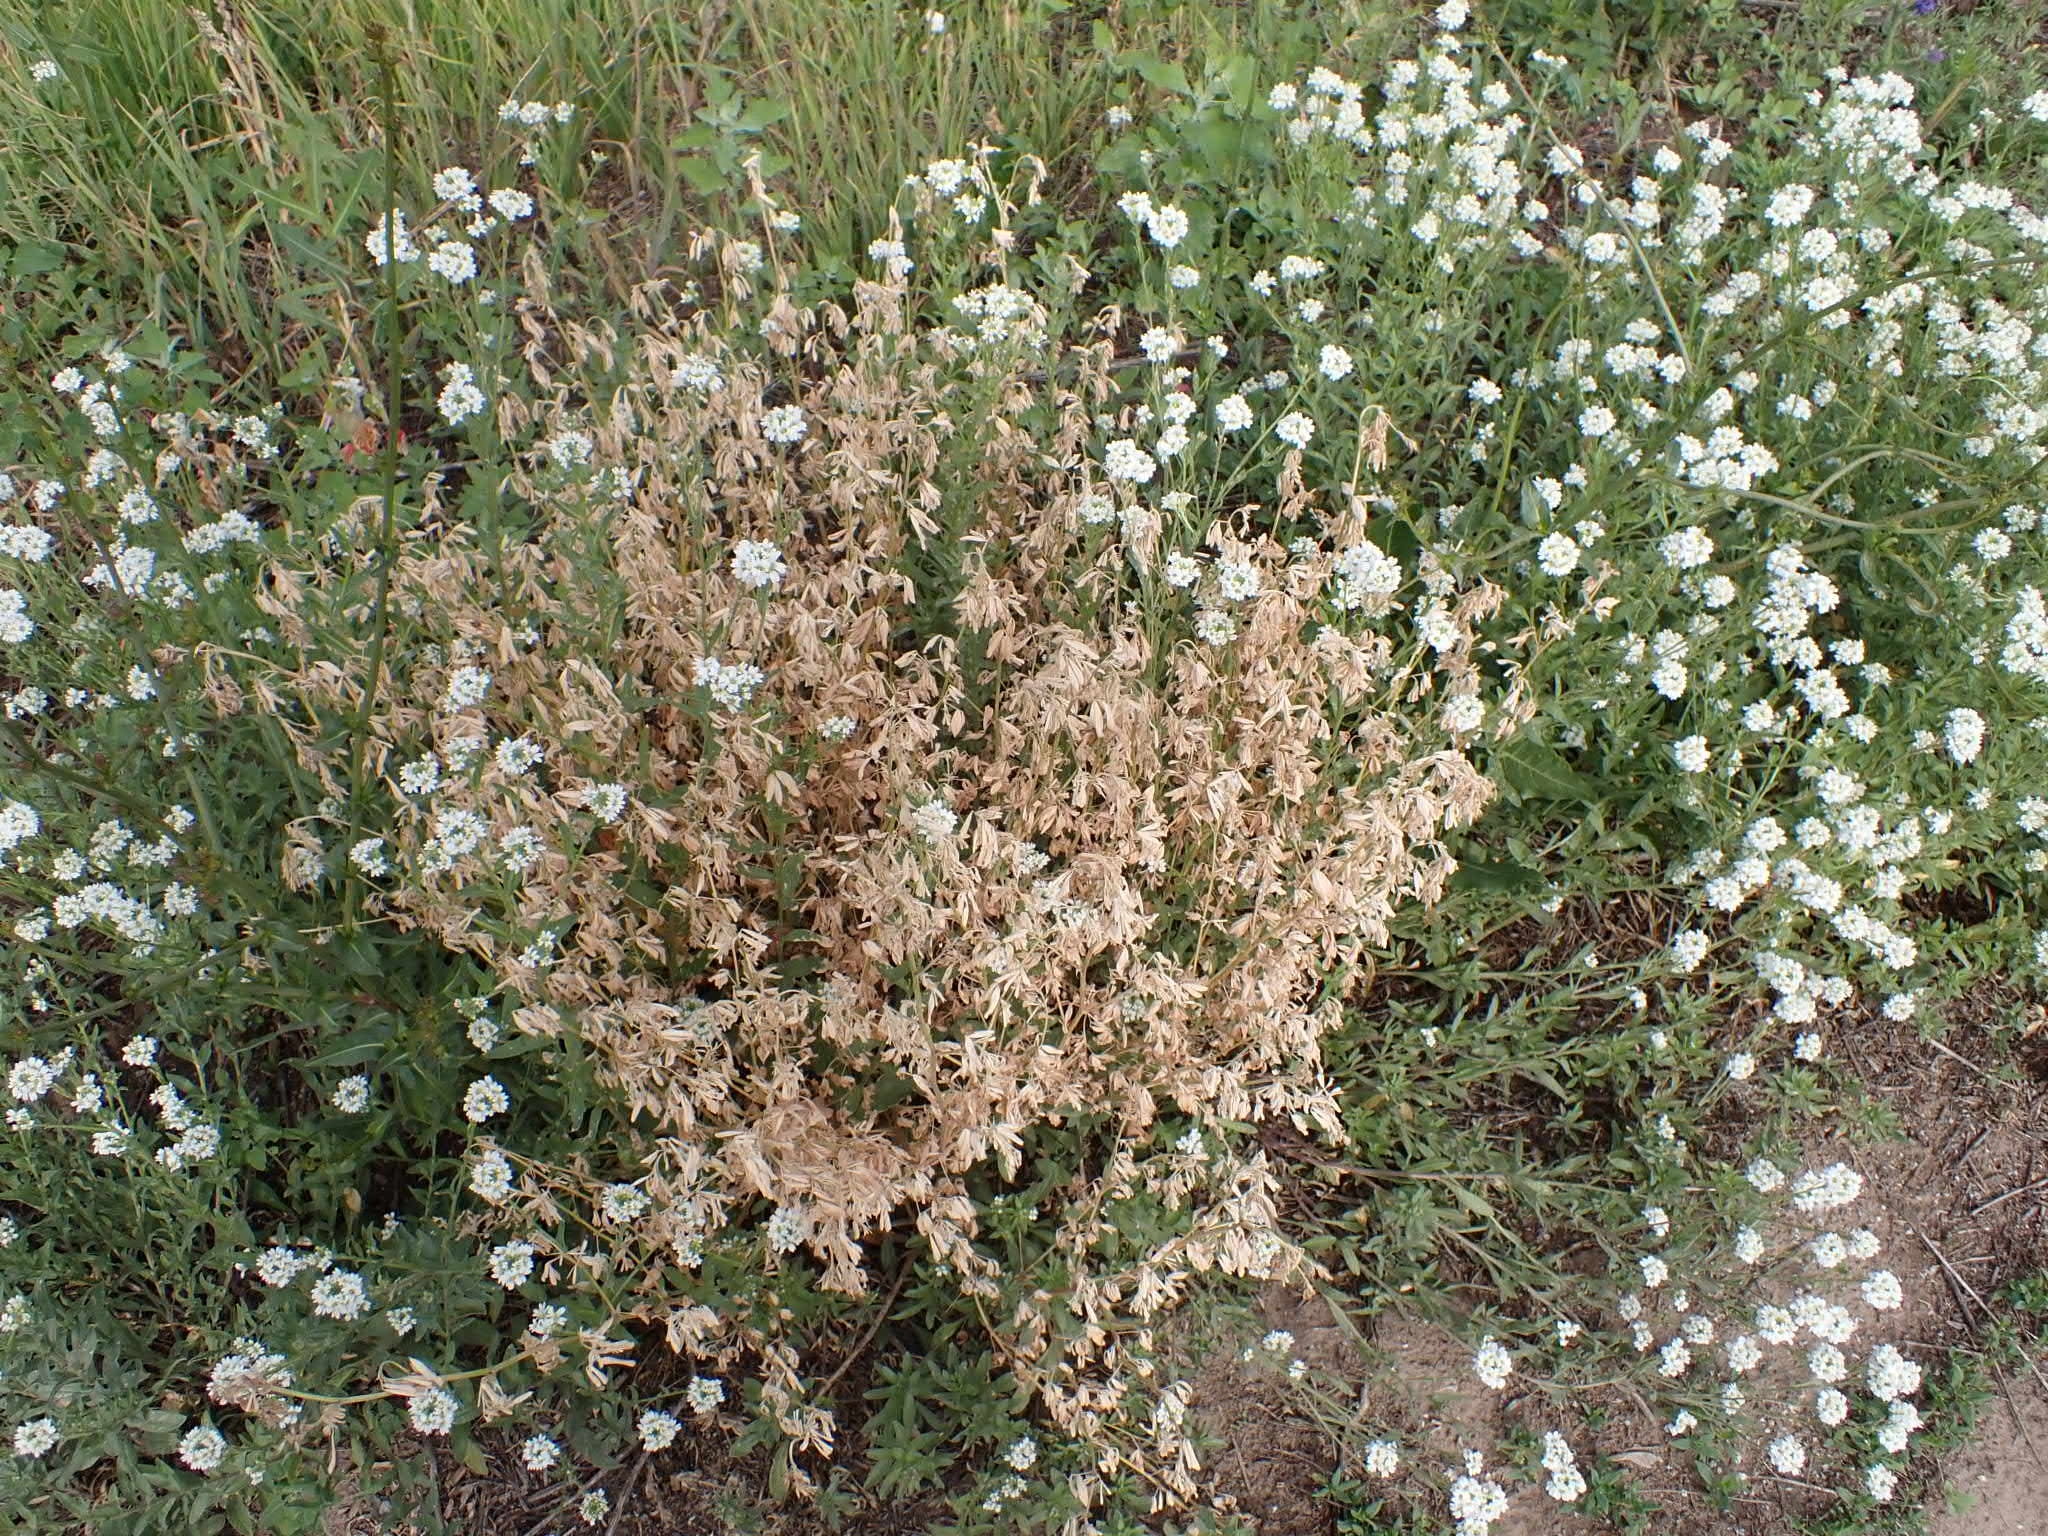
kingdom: Plantae
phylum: Tracheophyta
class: Magnoliopsida
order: Brassicales
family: Brassicaceae
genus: Berteroa
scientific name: Berteroa incana
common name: Hoary alison
